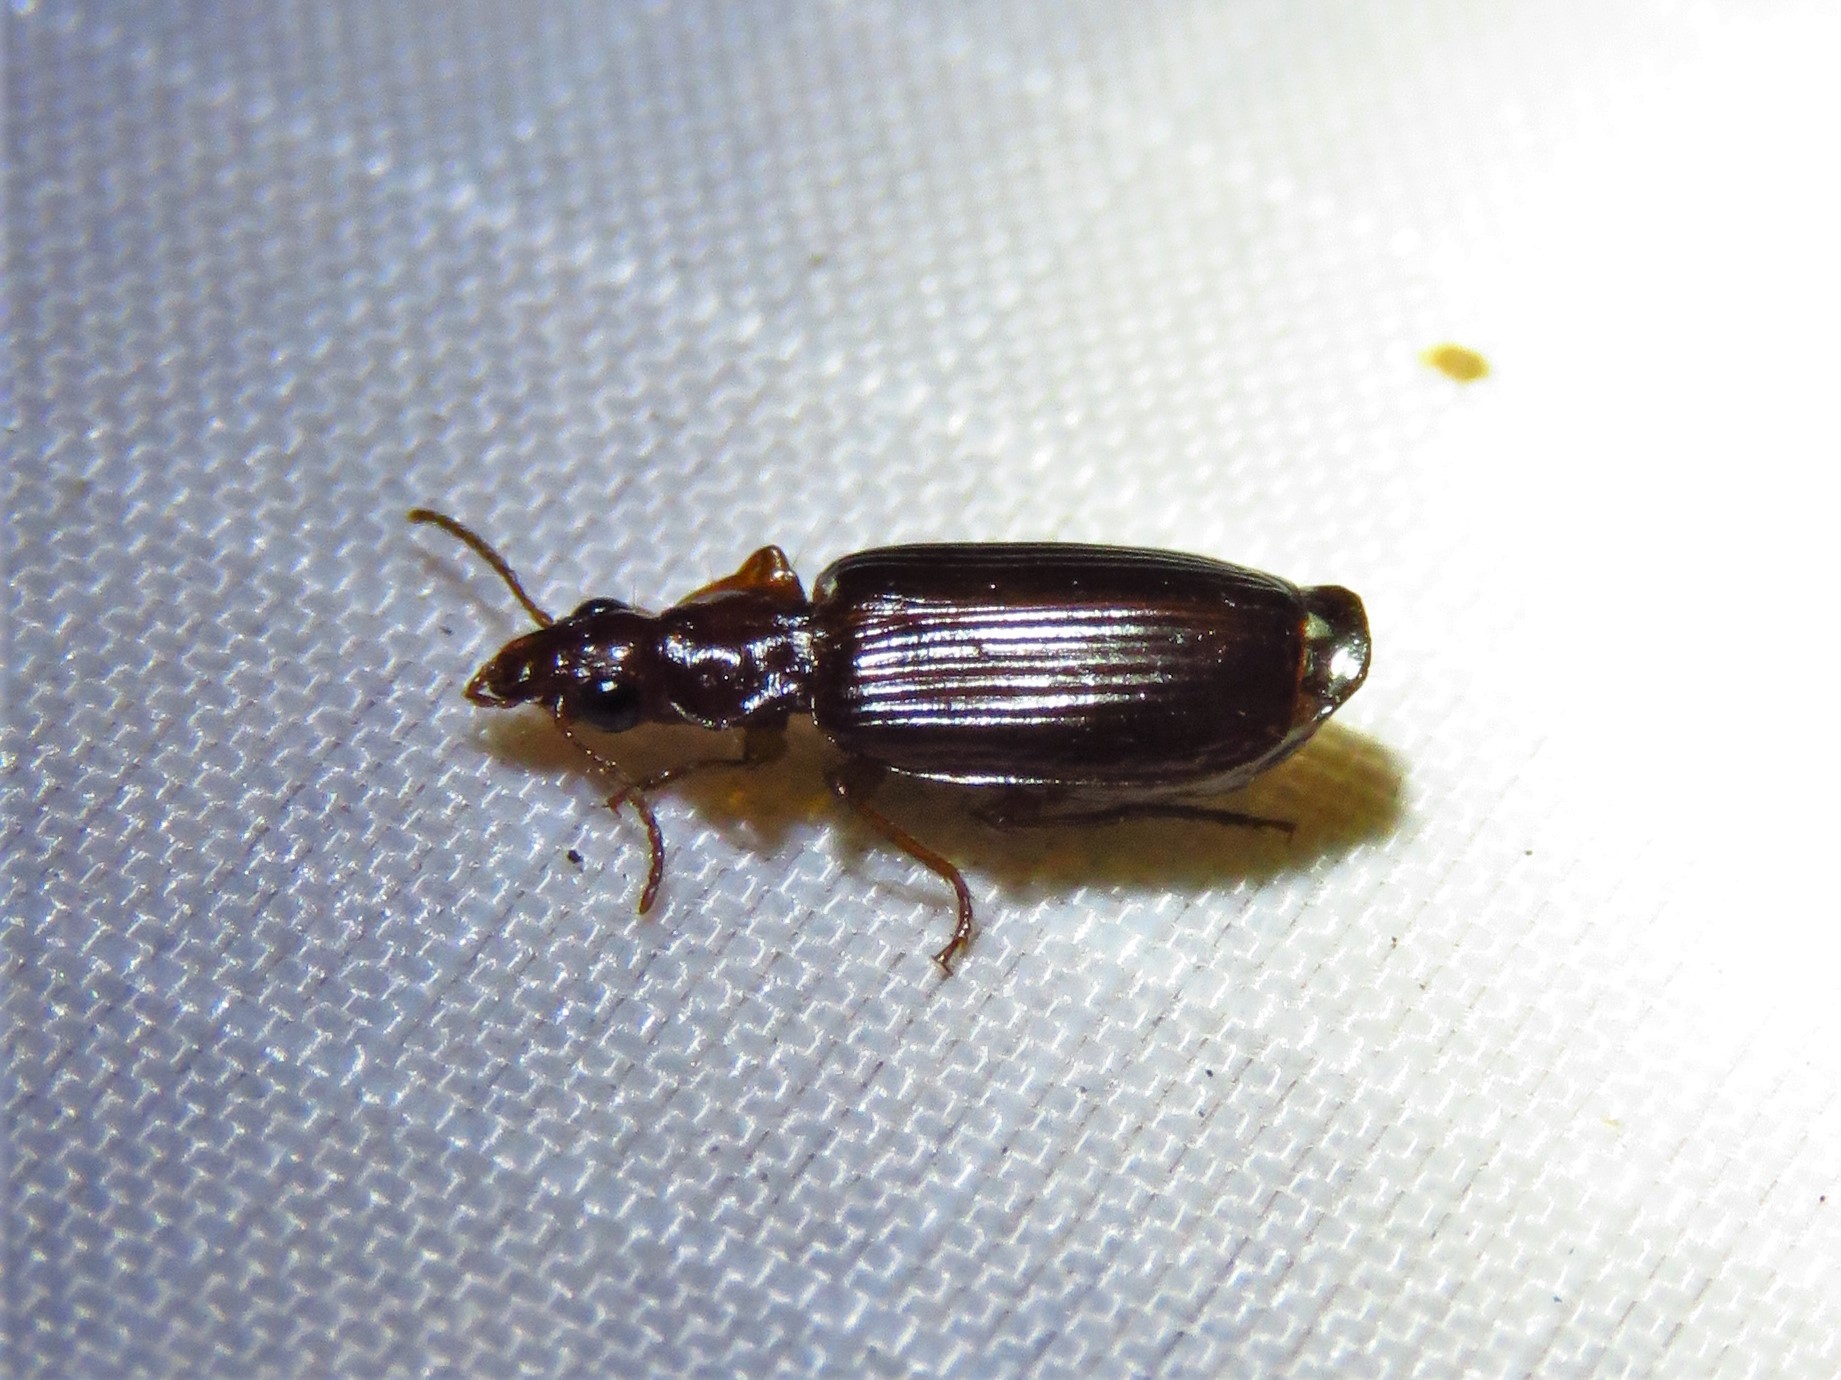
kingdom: Animalia
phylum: Arthropoda
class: Insecta
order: Coleoptera
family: Carabidae
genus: Plochionus
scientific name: Plochionus timidus
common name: Timid harp ground beetle
